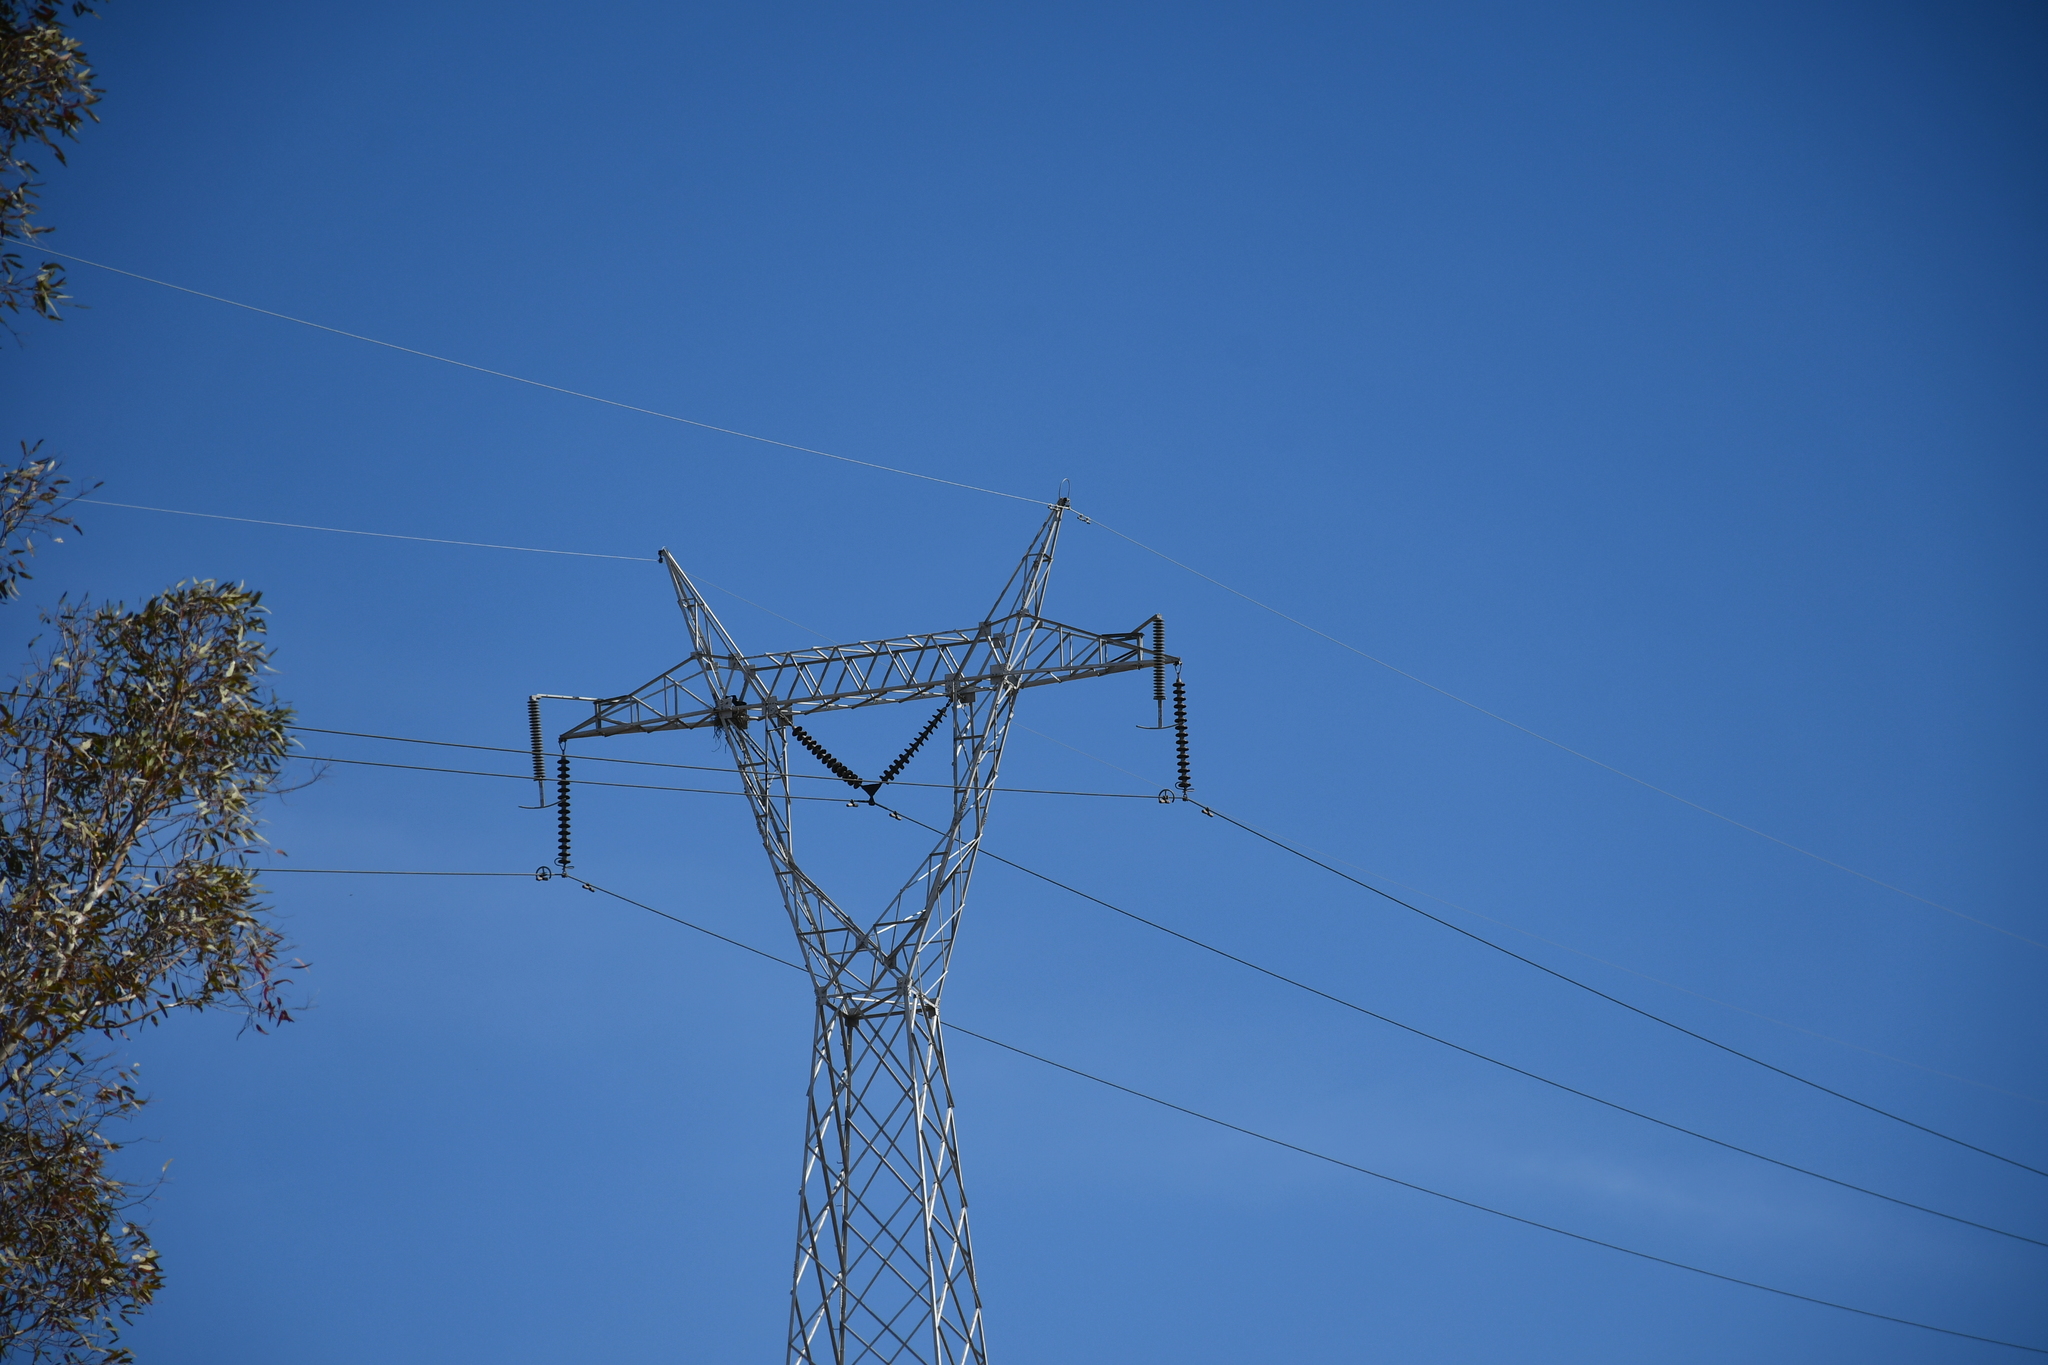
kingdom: Animalia
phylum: Chordata
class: Aves
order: Passeriformes
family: Corvidae
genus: Corvus
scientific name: Corvus corax
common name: Common raven
